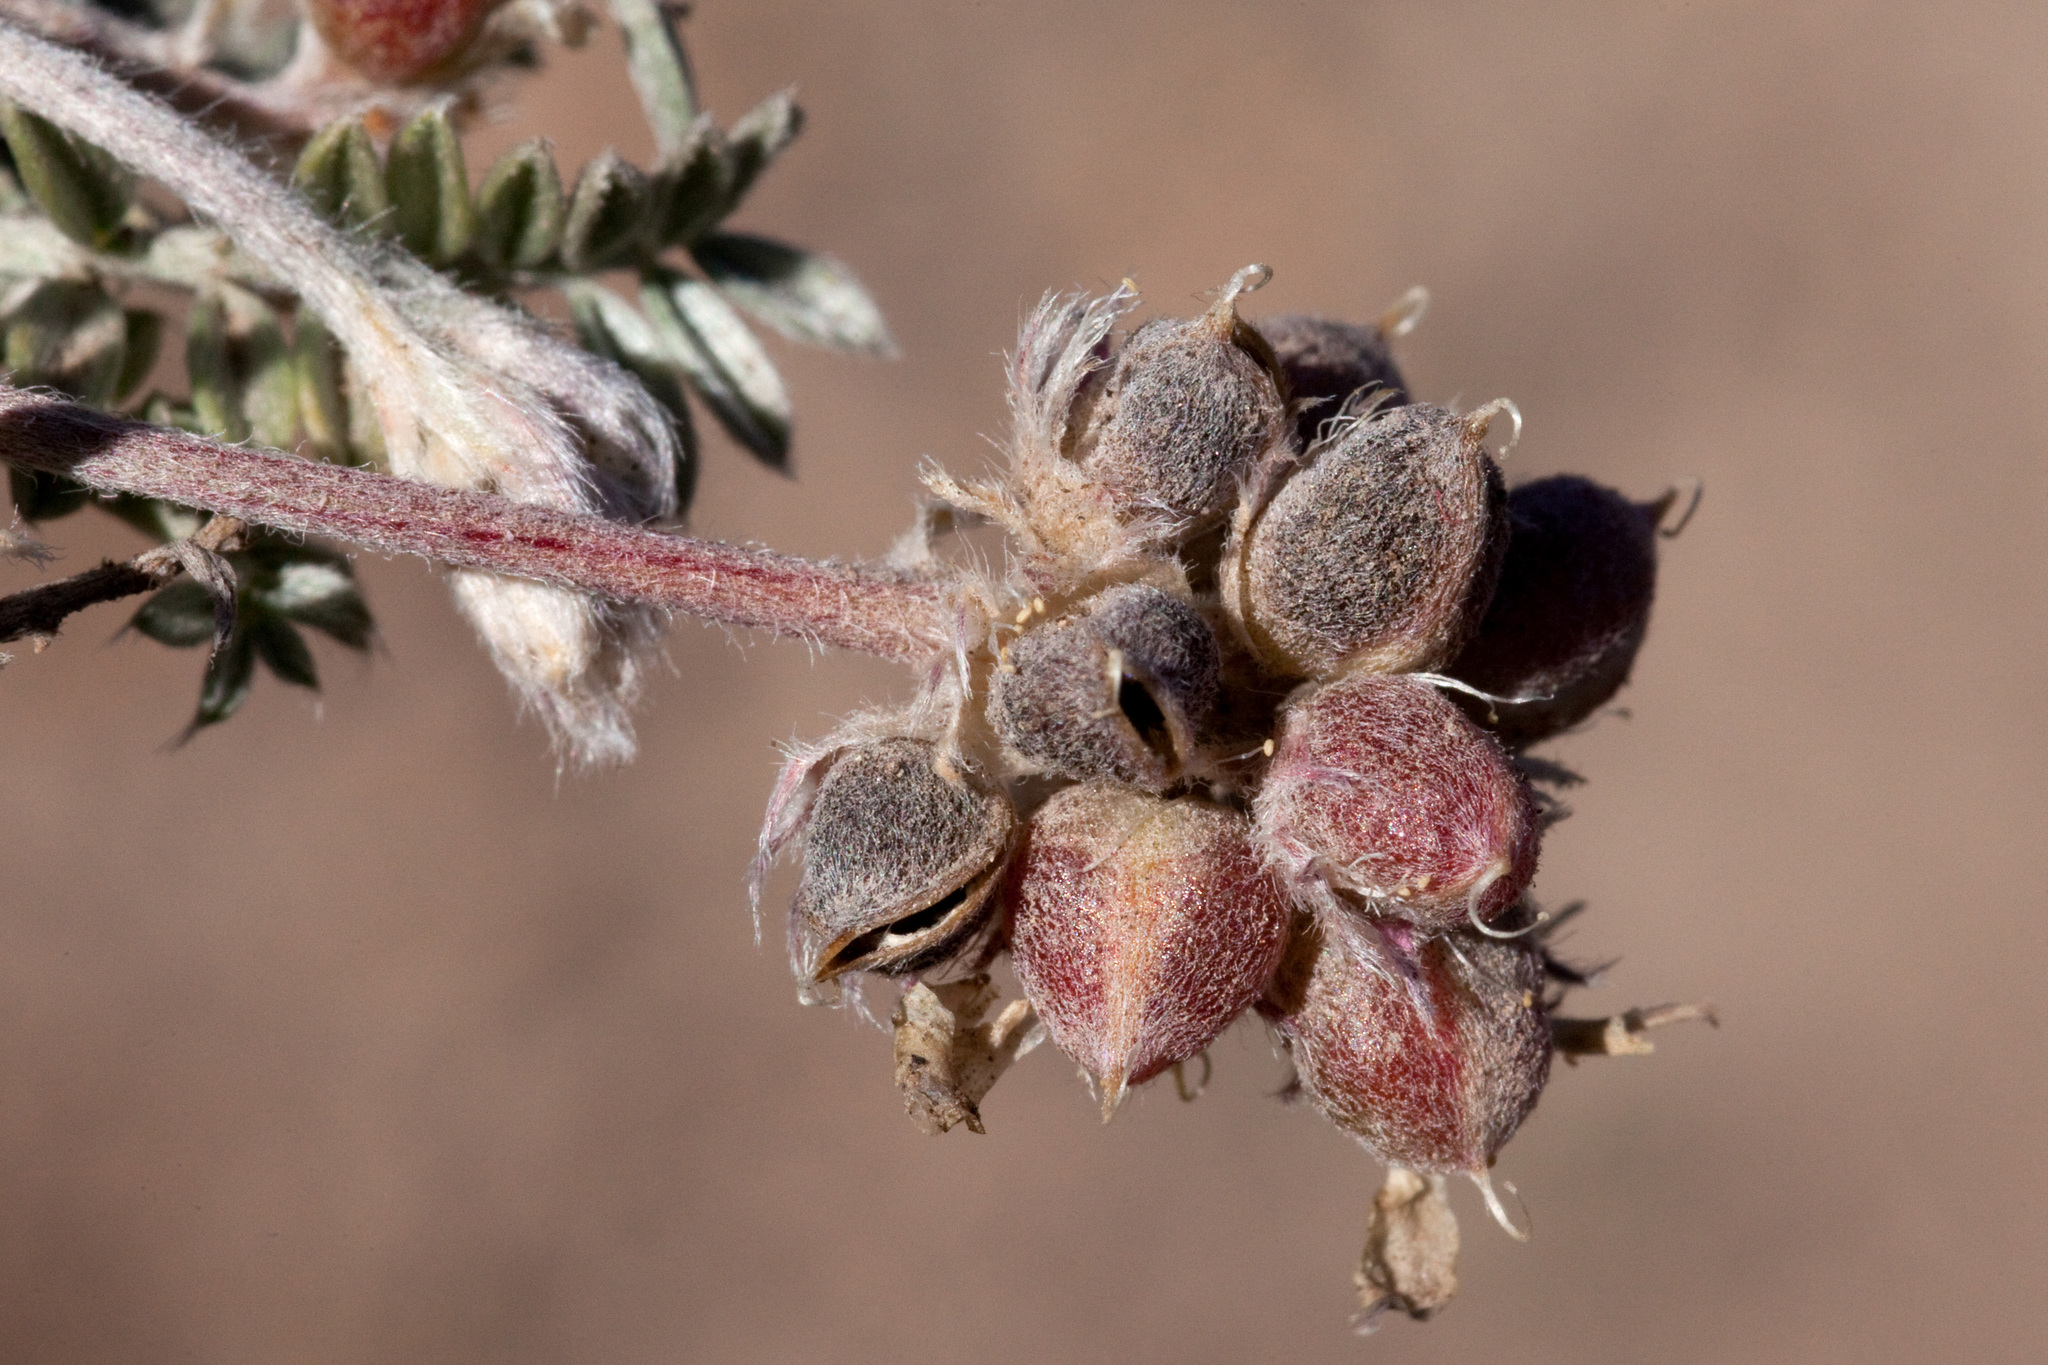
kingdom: Plantae
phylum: Tracheophyta
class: Magnoliopsida
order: Fabales
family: Fabaceae
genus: Astragalus
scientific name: Astragalus gilensis
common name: Gila milk-vetch
